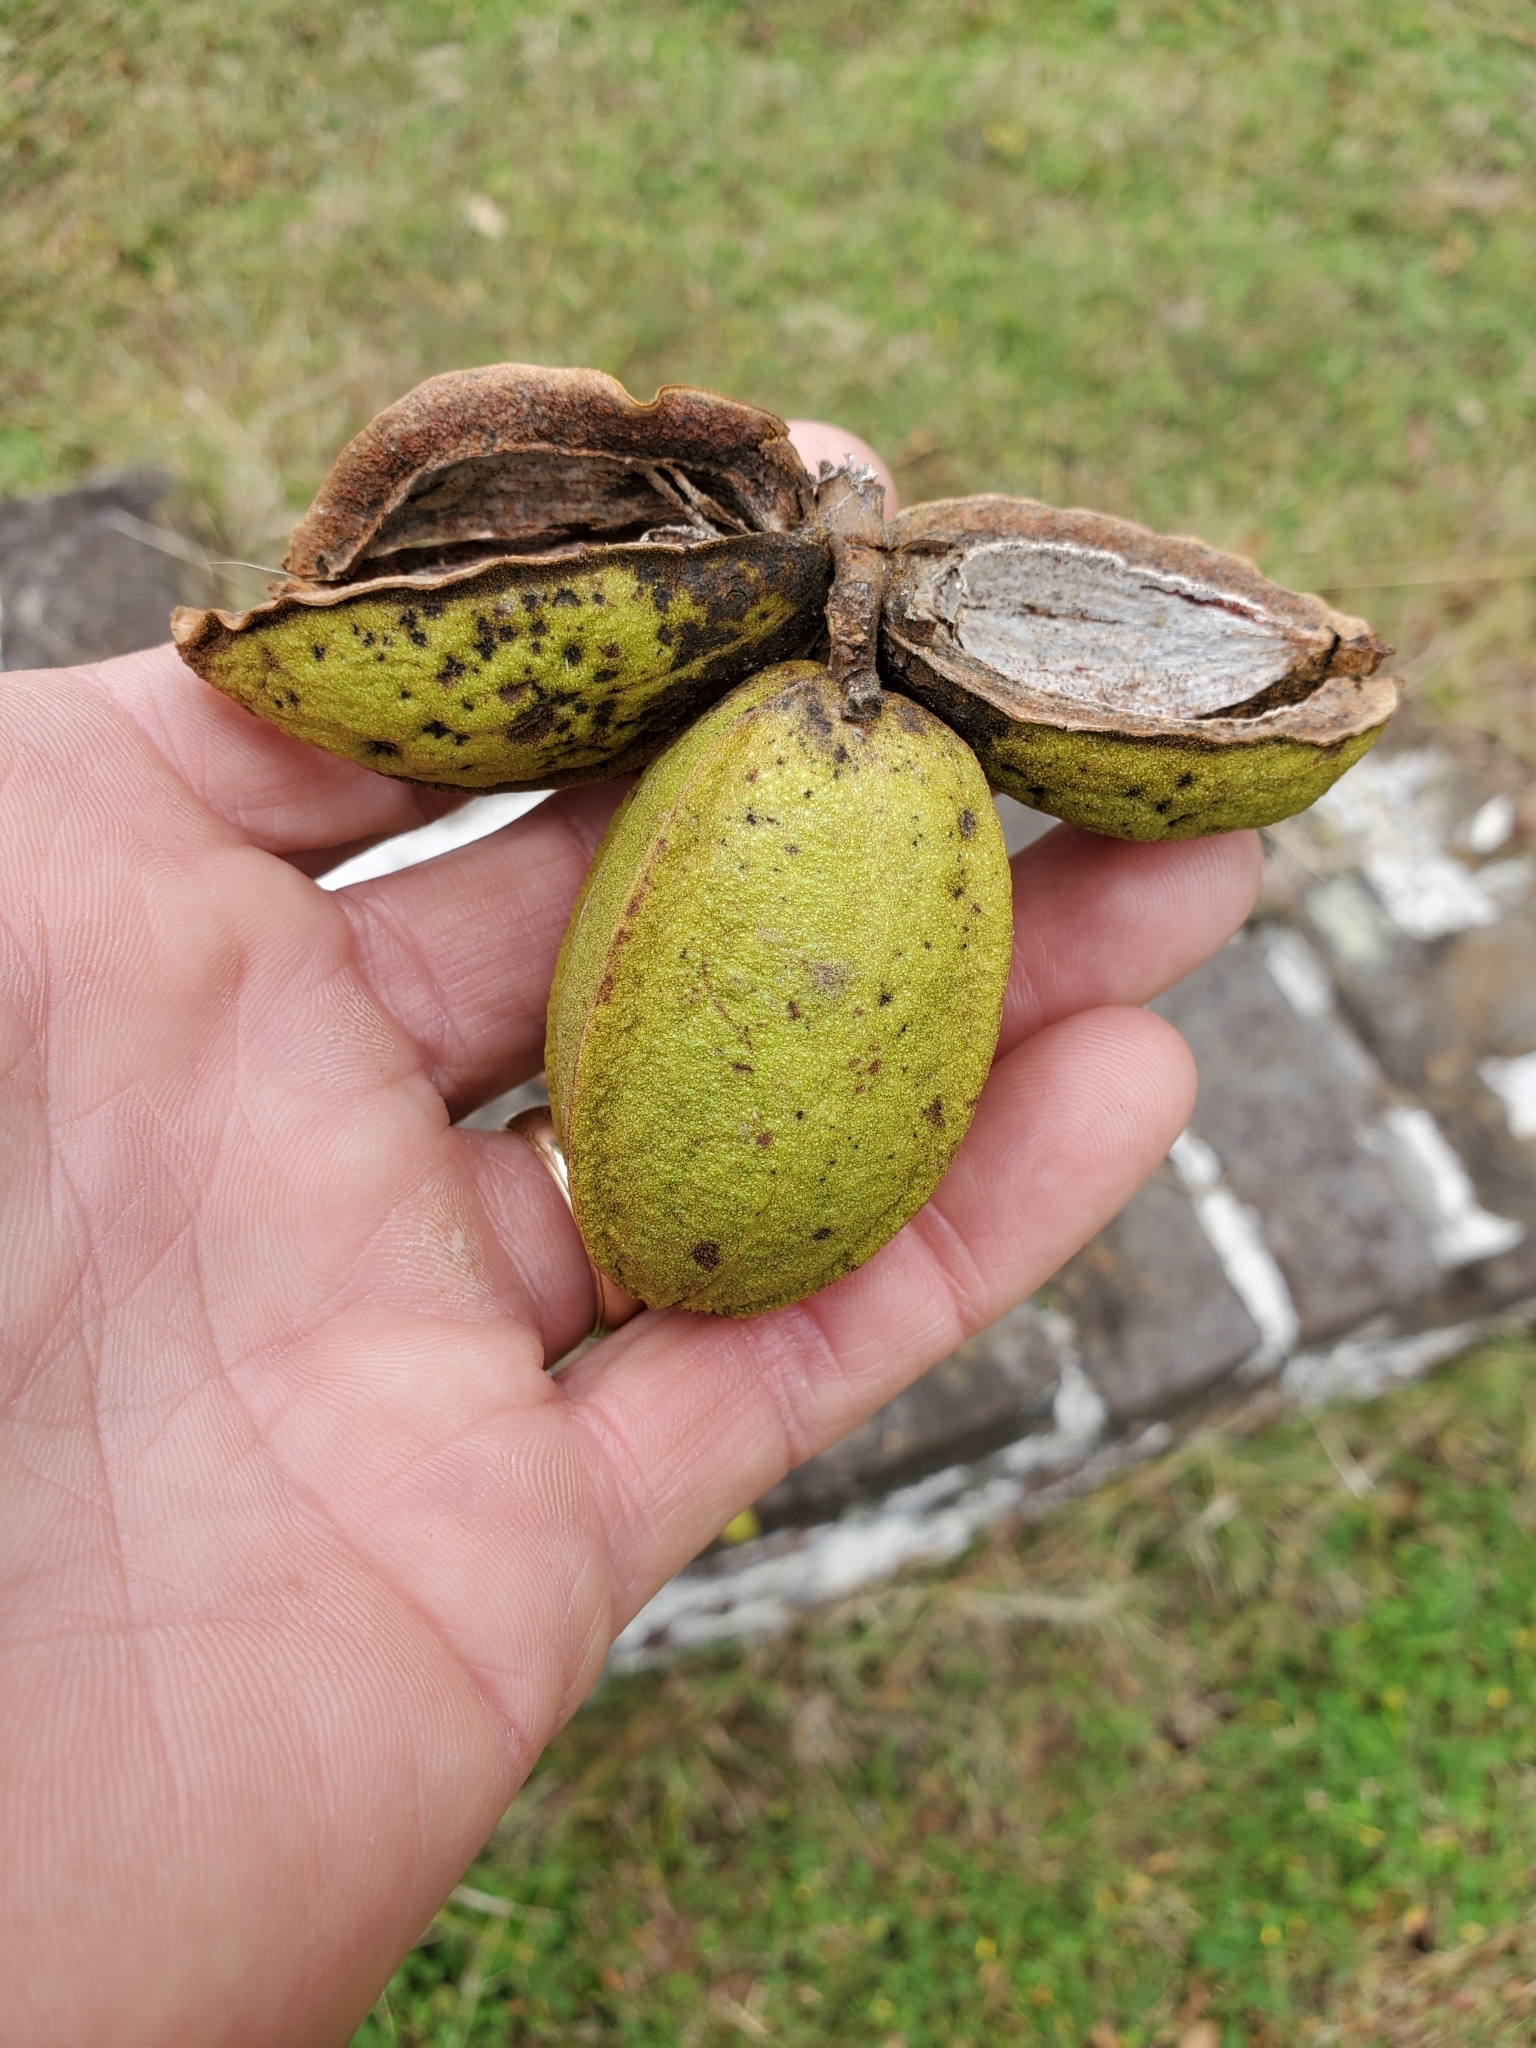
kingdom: Plantae
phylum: Tracheophyta
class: Magnoliopsida
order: Fagales
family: Juglandaceae
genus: Carya
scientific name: Carya illinoinensis
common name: Pecan
